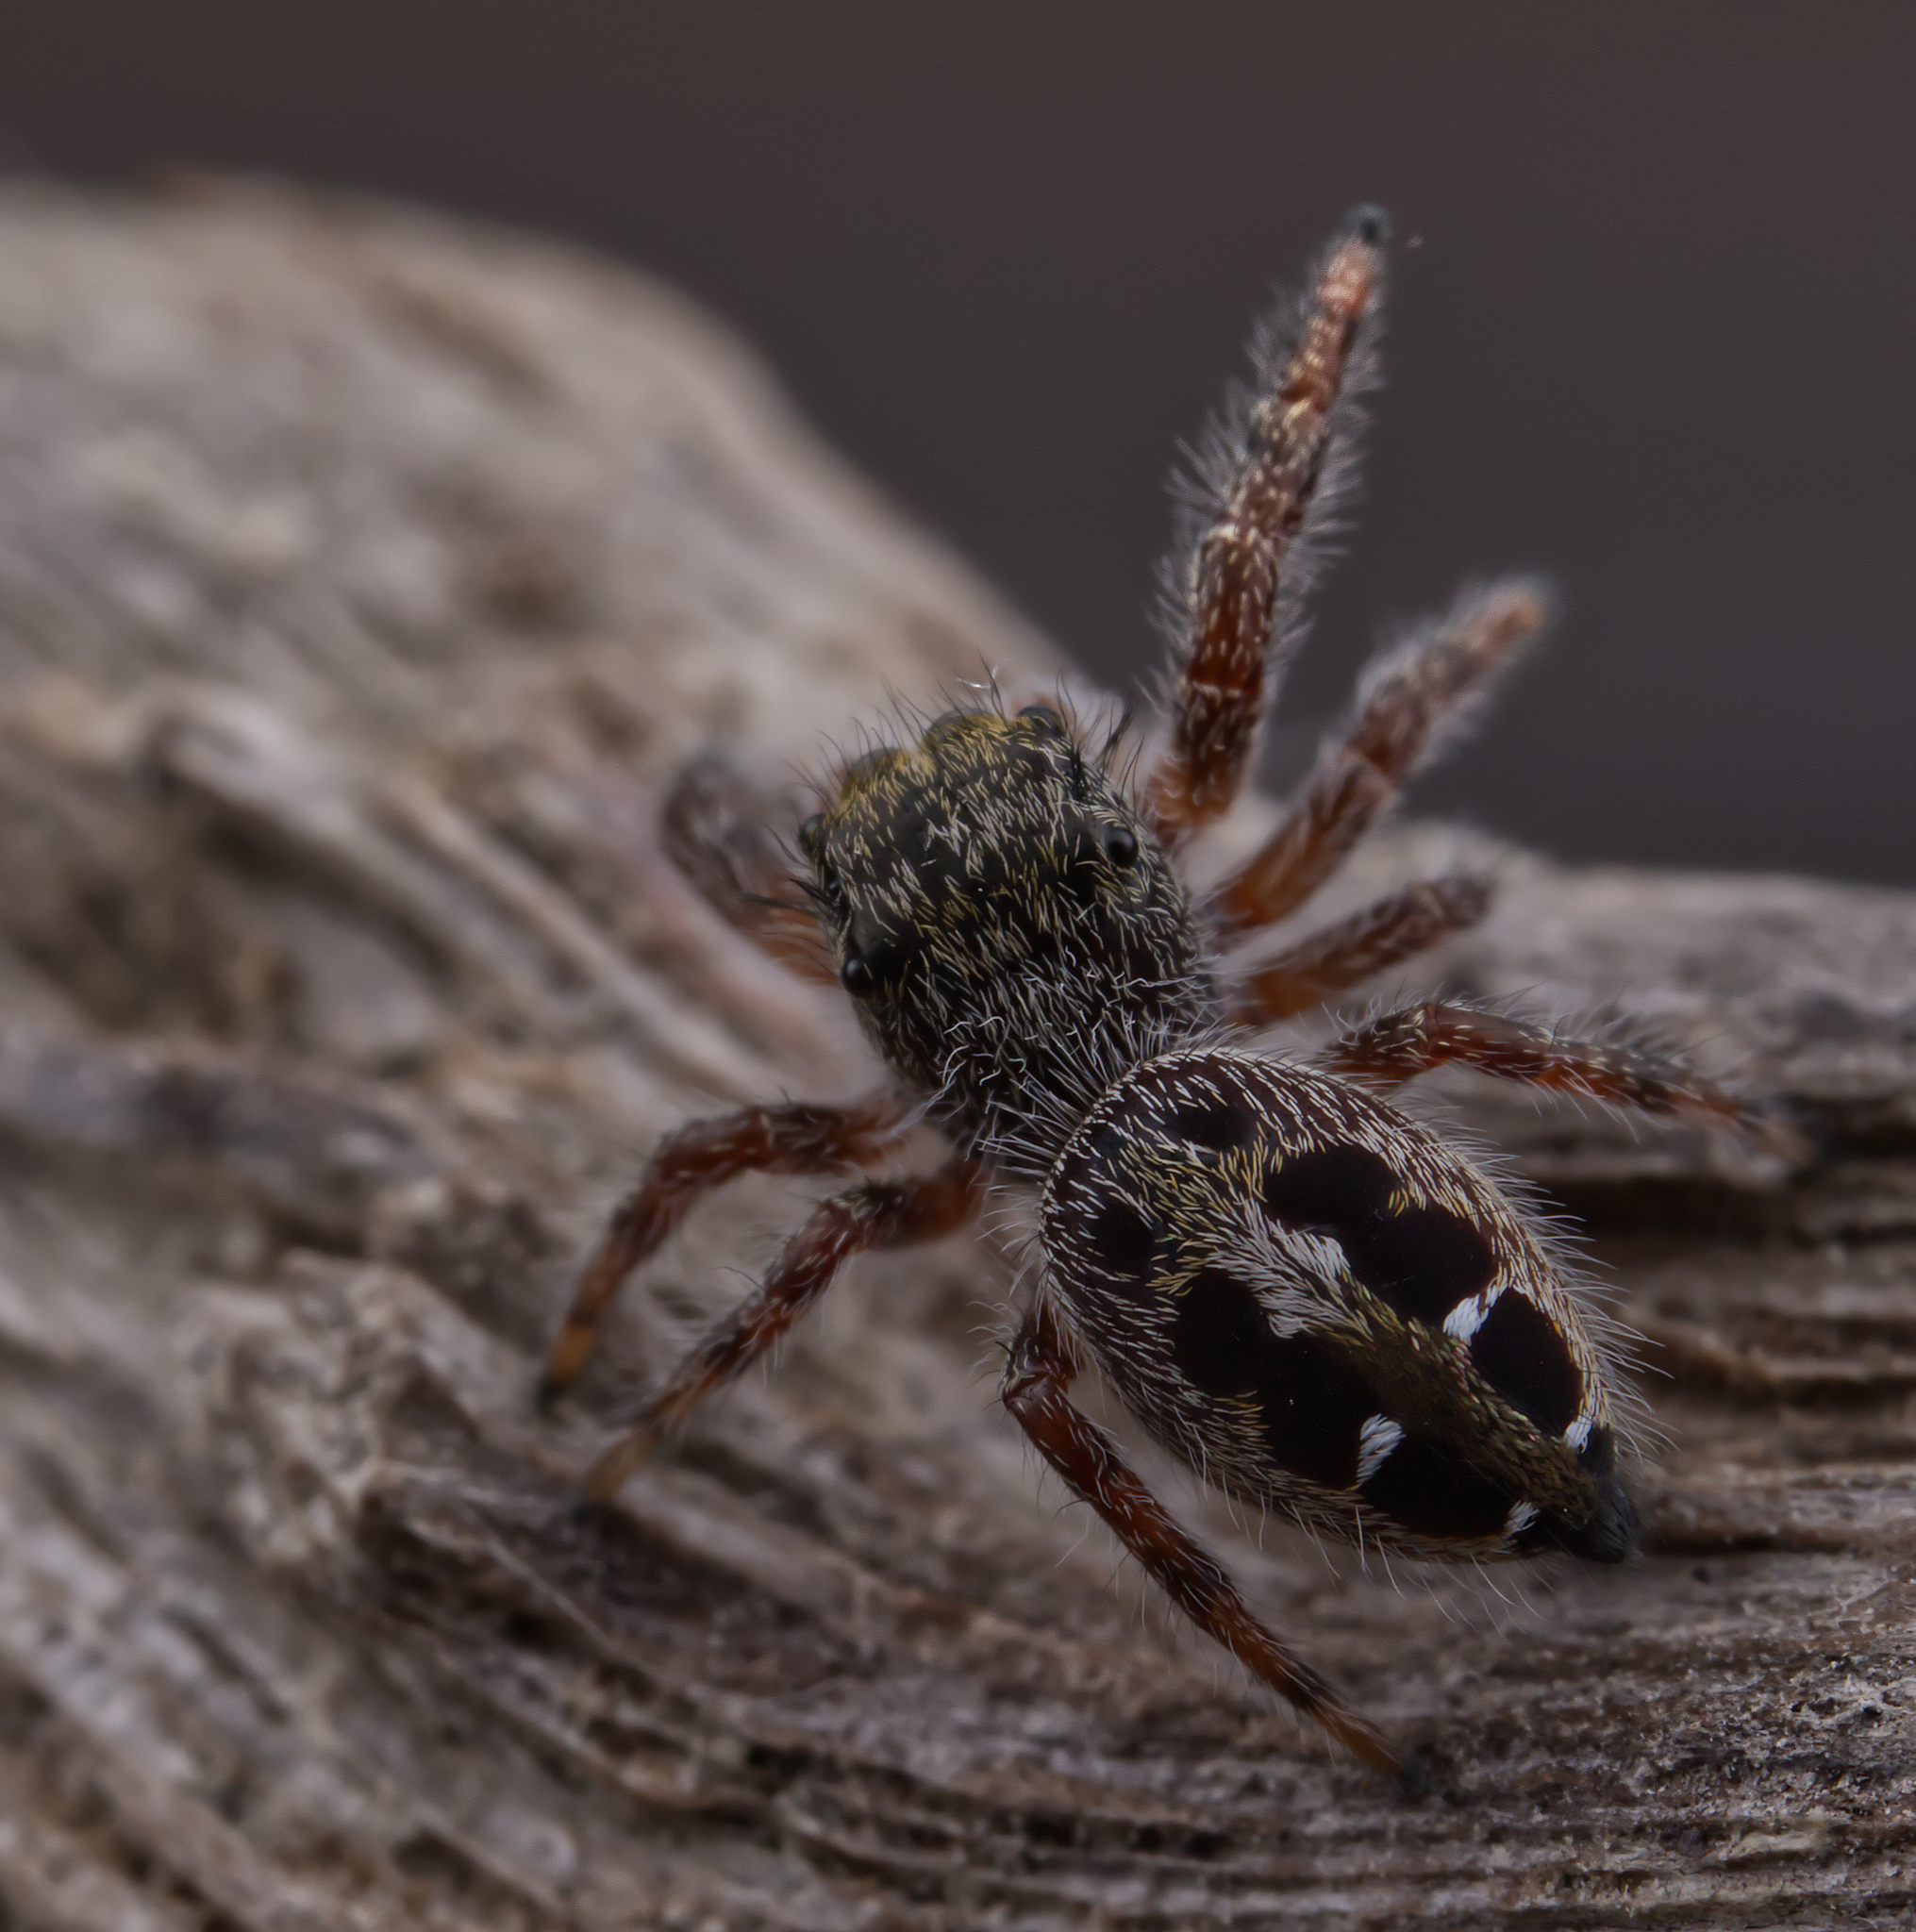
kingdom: Animalia
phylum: Arthropoda
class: Arachnida
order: Araneae
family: Salticidae
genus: Phidippus
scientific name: Phidippus insignarius
